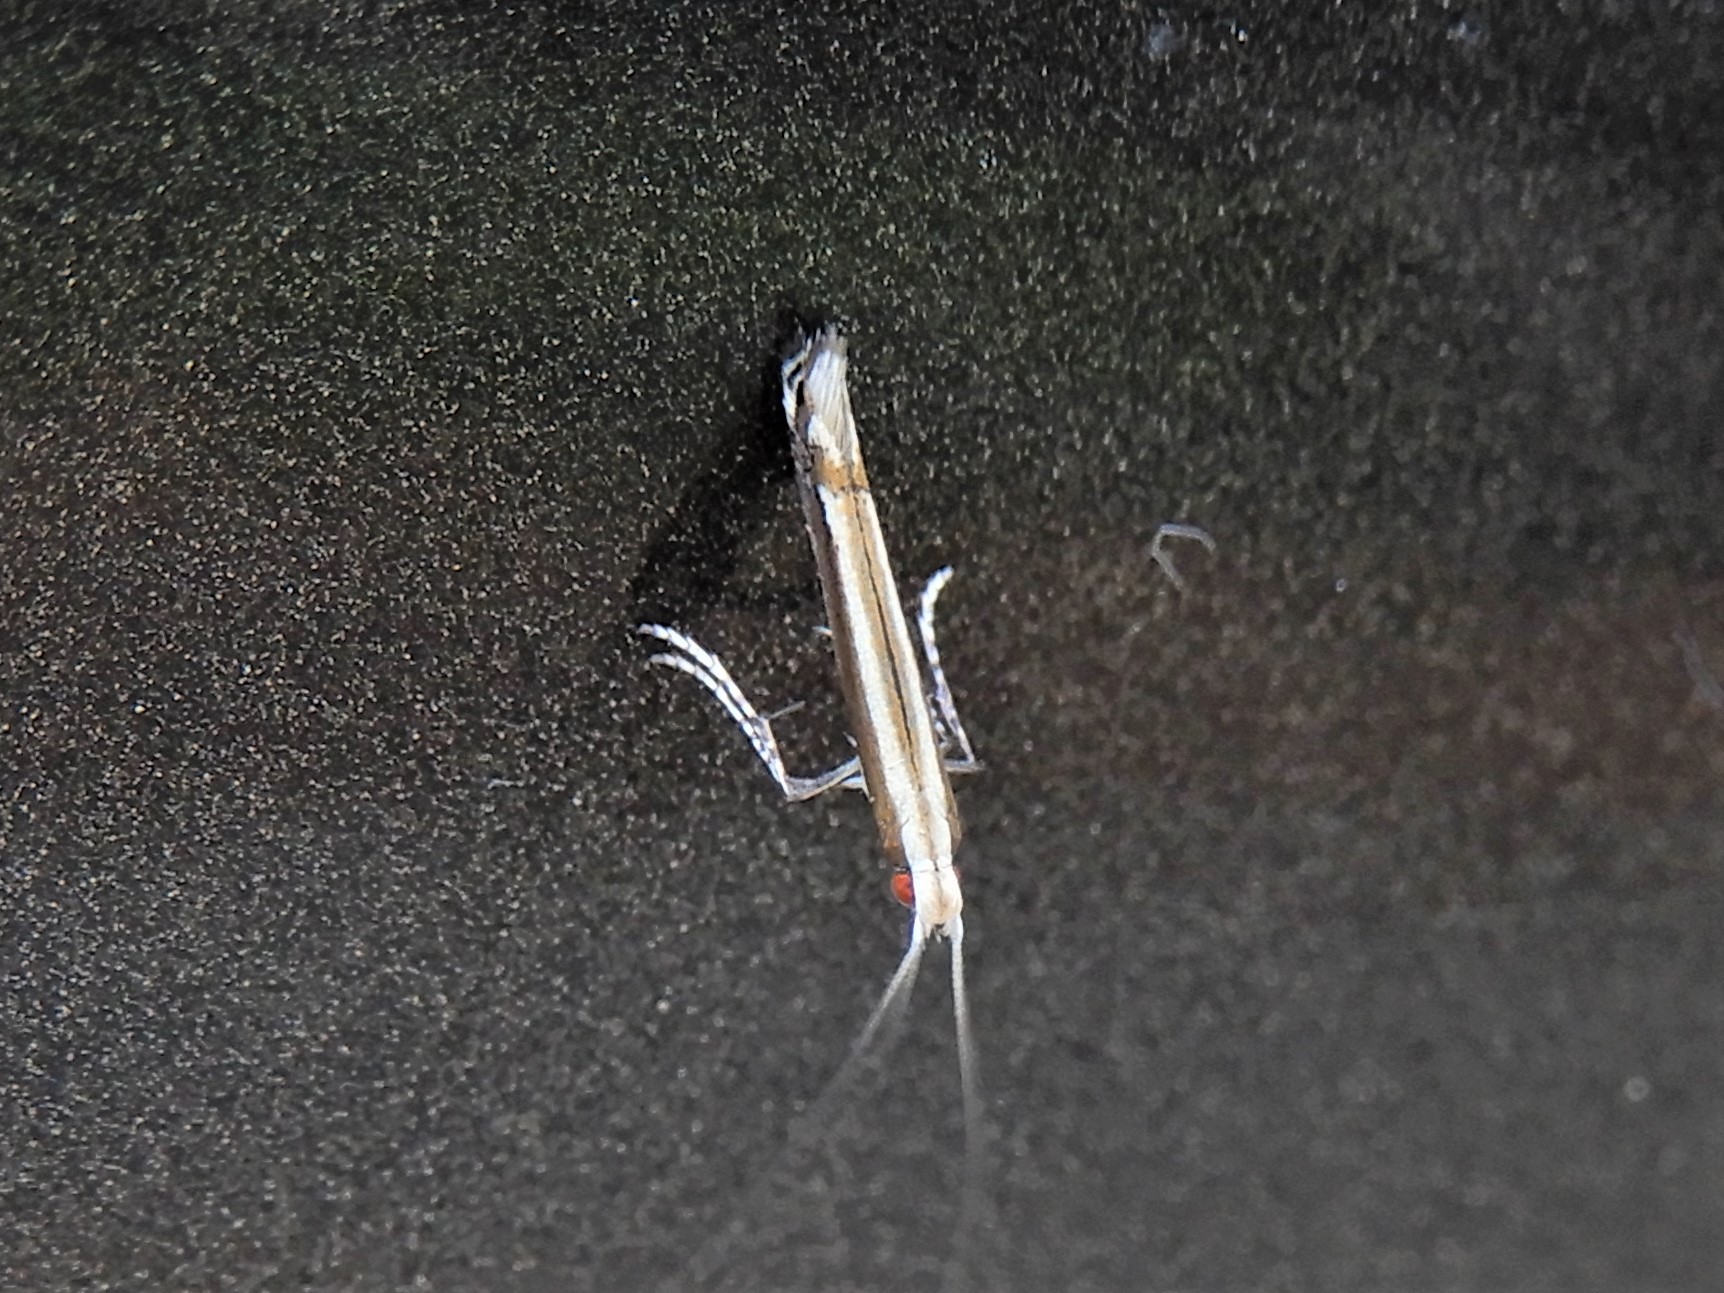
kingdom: Animalia
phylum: Arthropoda
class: Insecta
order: Lepidoptera
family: Gracillariidae
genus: Acrocercops
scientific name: Acrocercops laciniella
